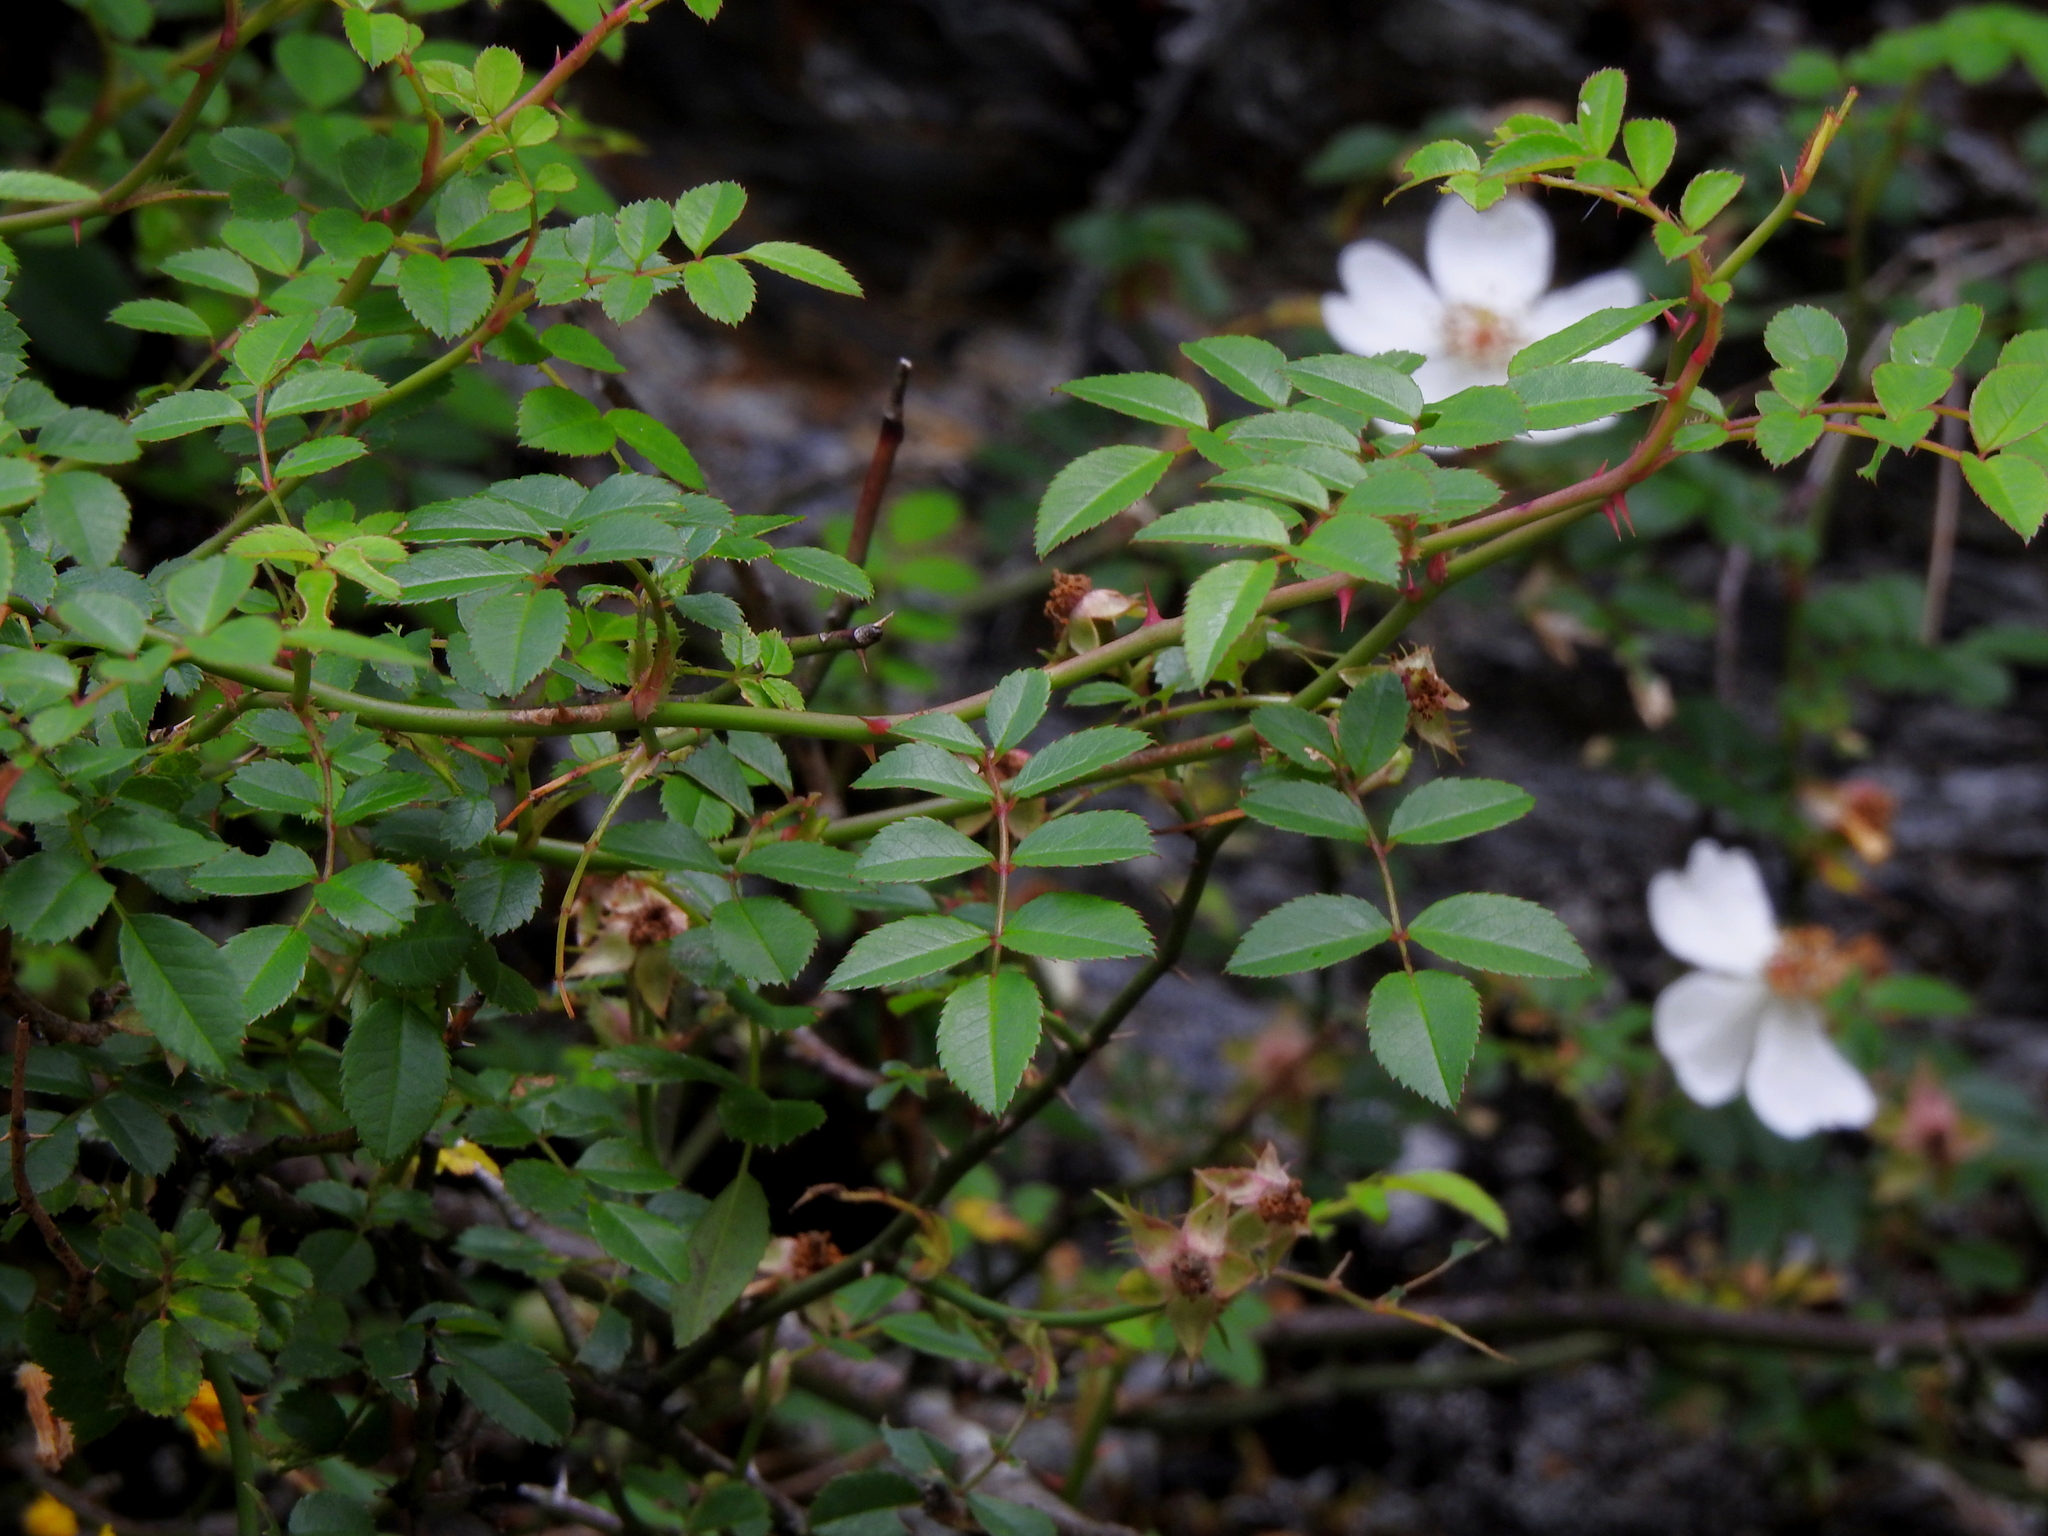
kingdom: Plantae
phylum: Tracheophyta
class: Magnoliopsida
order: Rosales
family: Rosaceae
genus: Rosa
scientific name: Rosa transmorrisonensis
